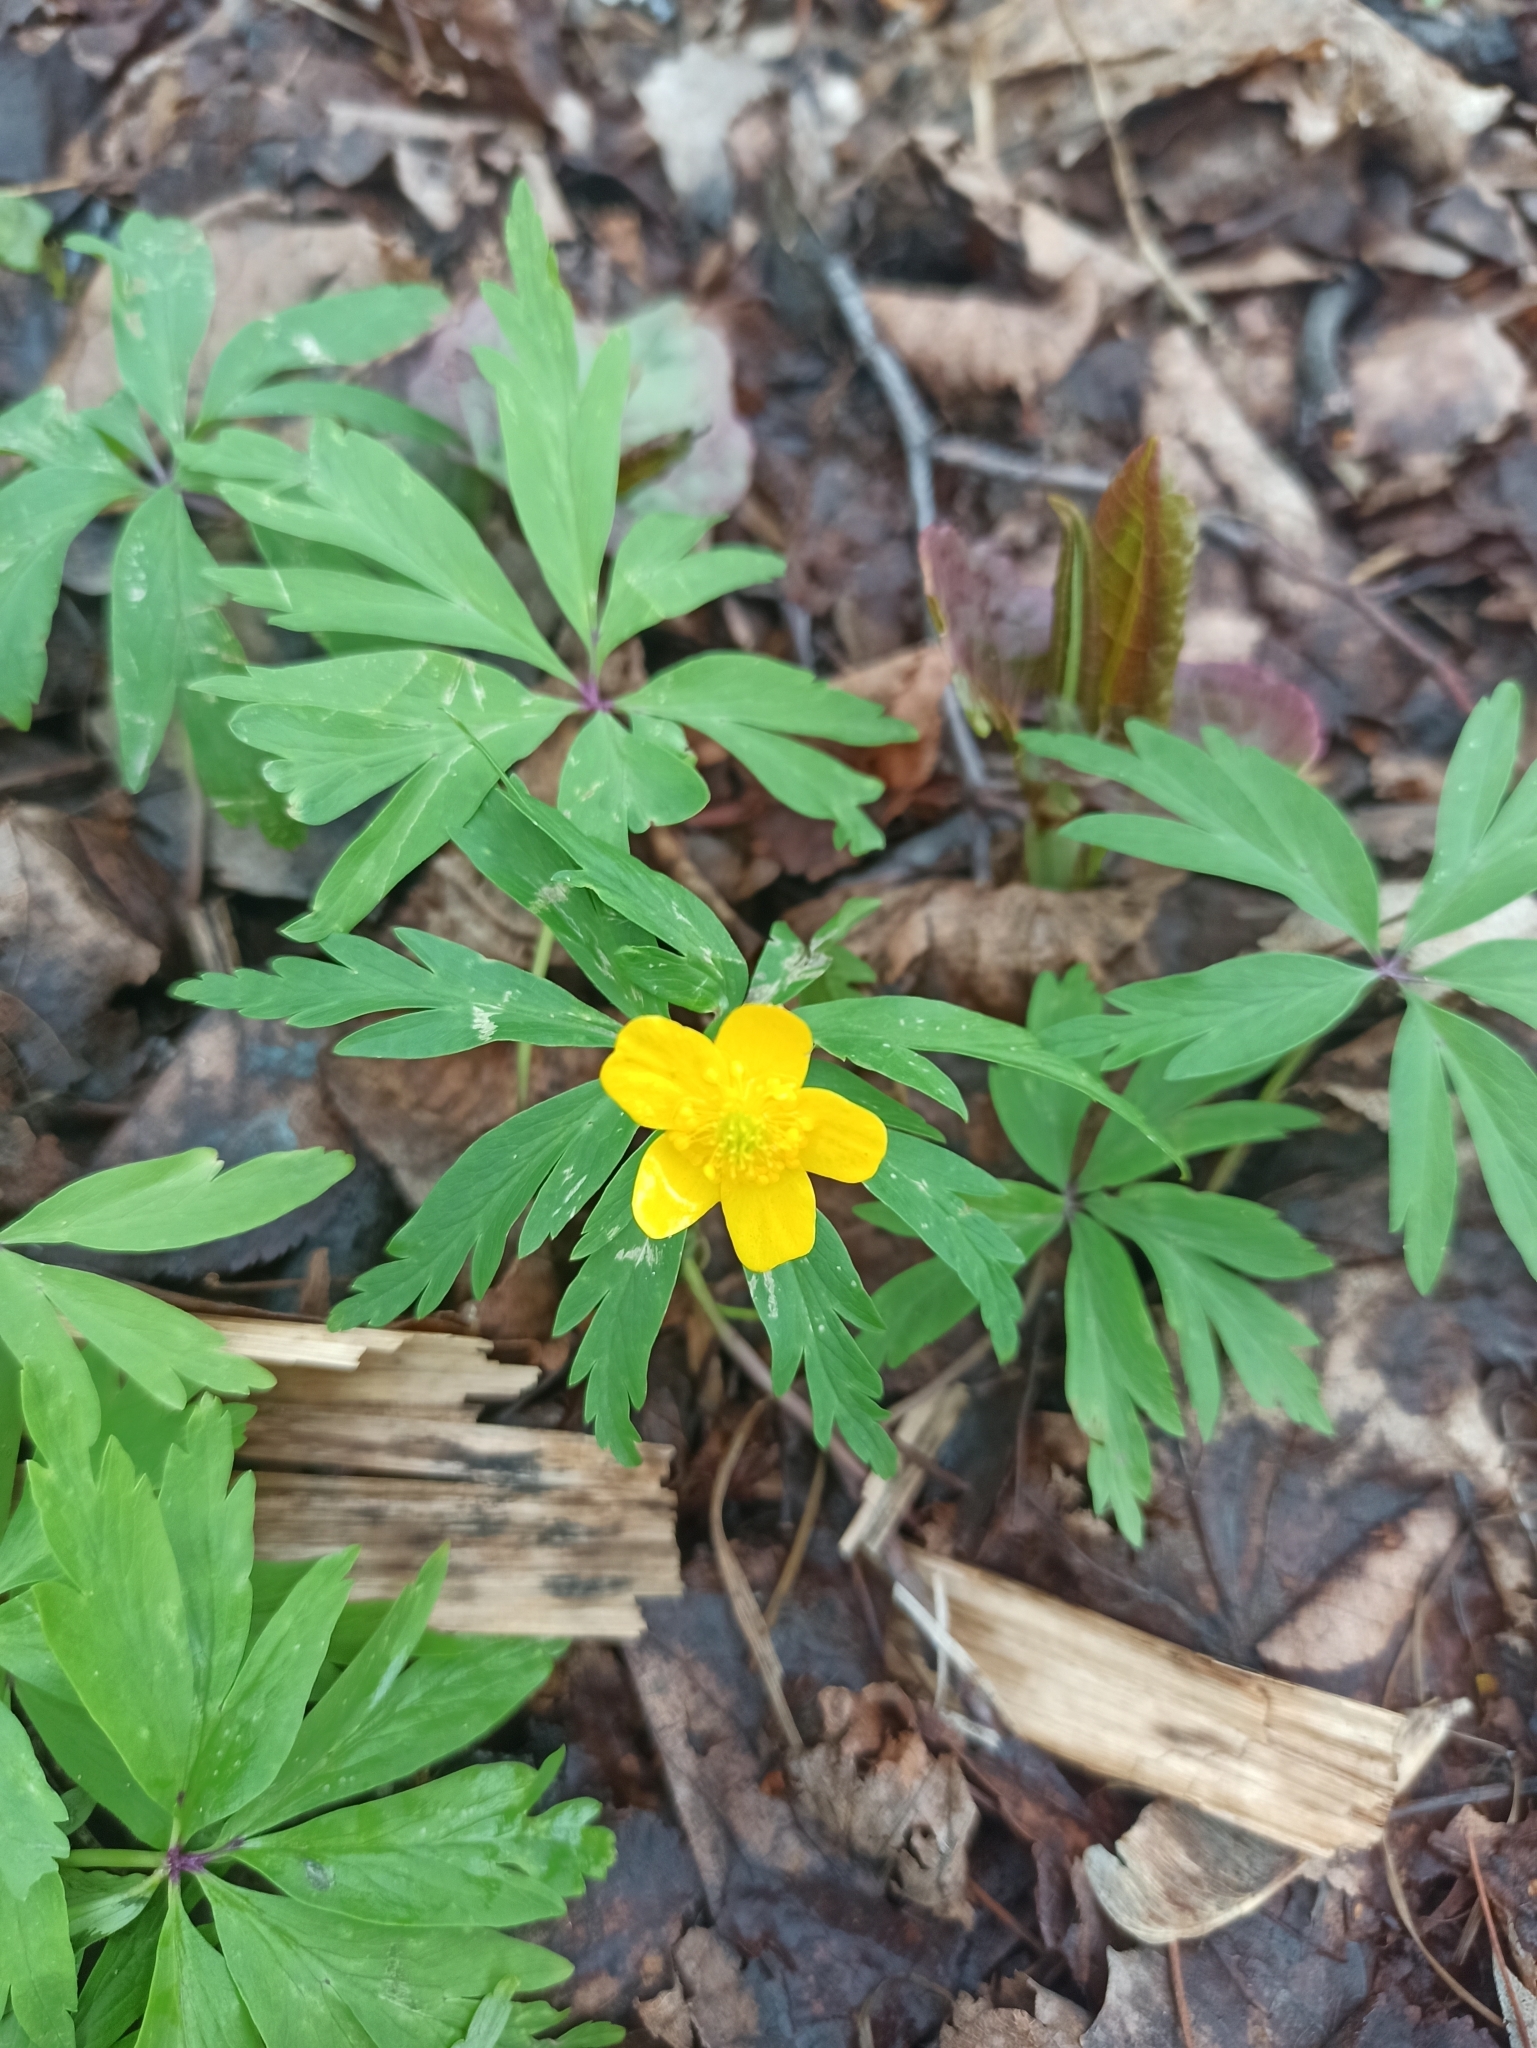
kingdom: Plantae
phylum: Tracheophyta
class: Magnoliopsida
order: Ranunculales
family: Ranunculaceae
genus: Anemone
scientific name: Anemone ranunculoides
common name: Yellow anemone
